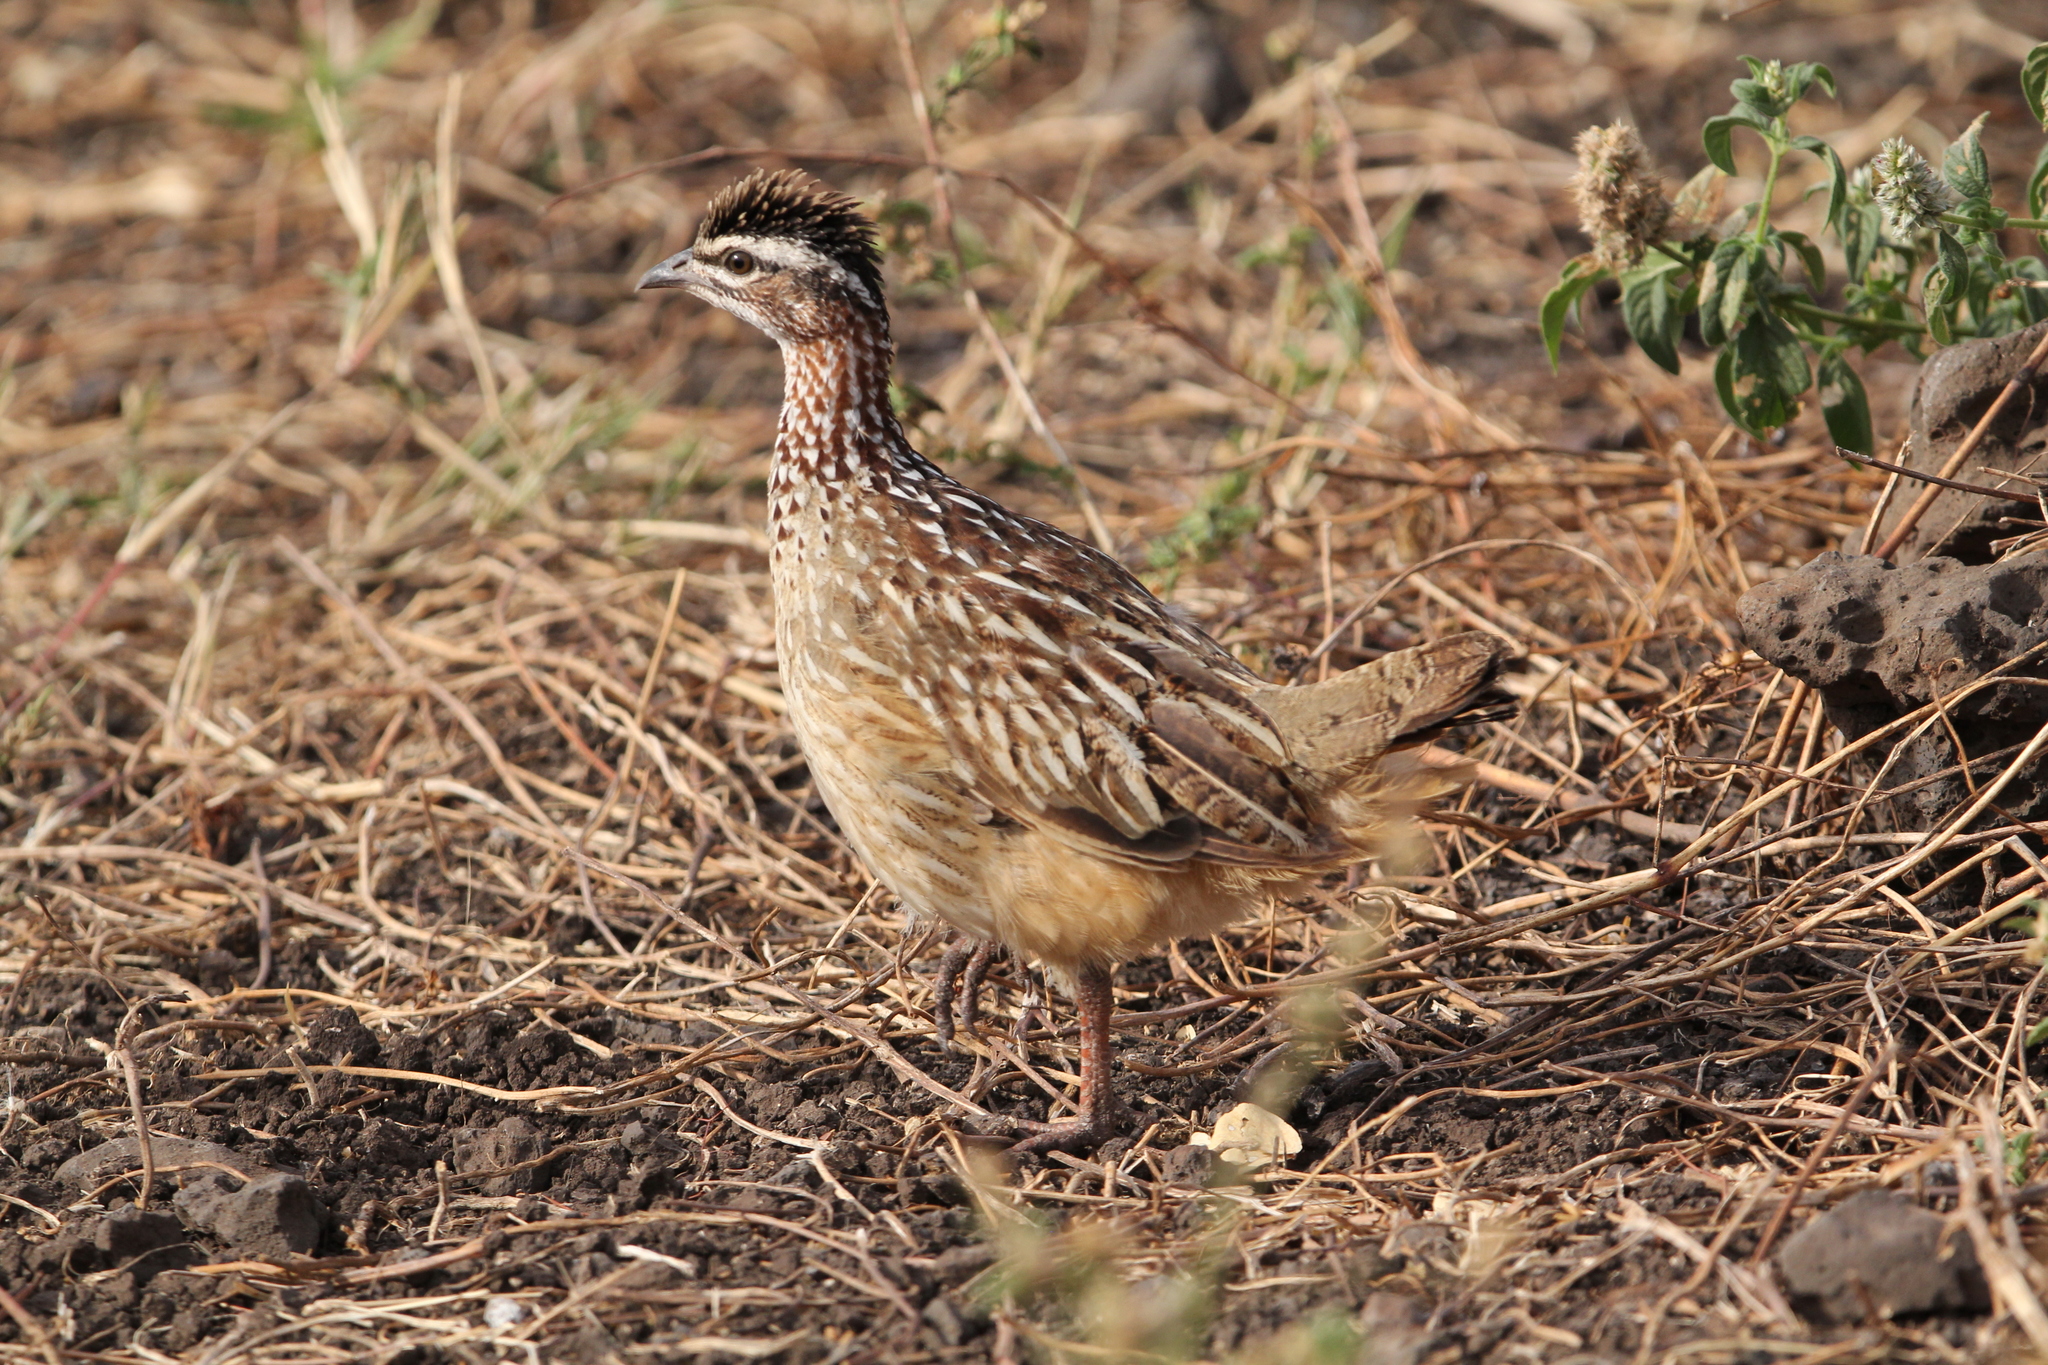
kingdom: Animalia
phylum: Chordata
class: Aves
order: Galliformes
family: Phasianidae
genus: Ortygornis
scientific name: Ortygornis sephaena
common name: Crested francolin
